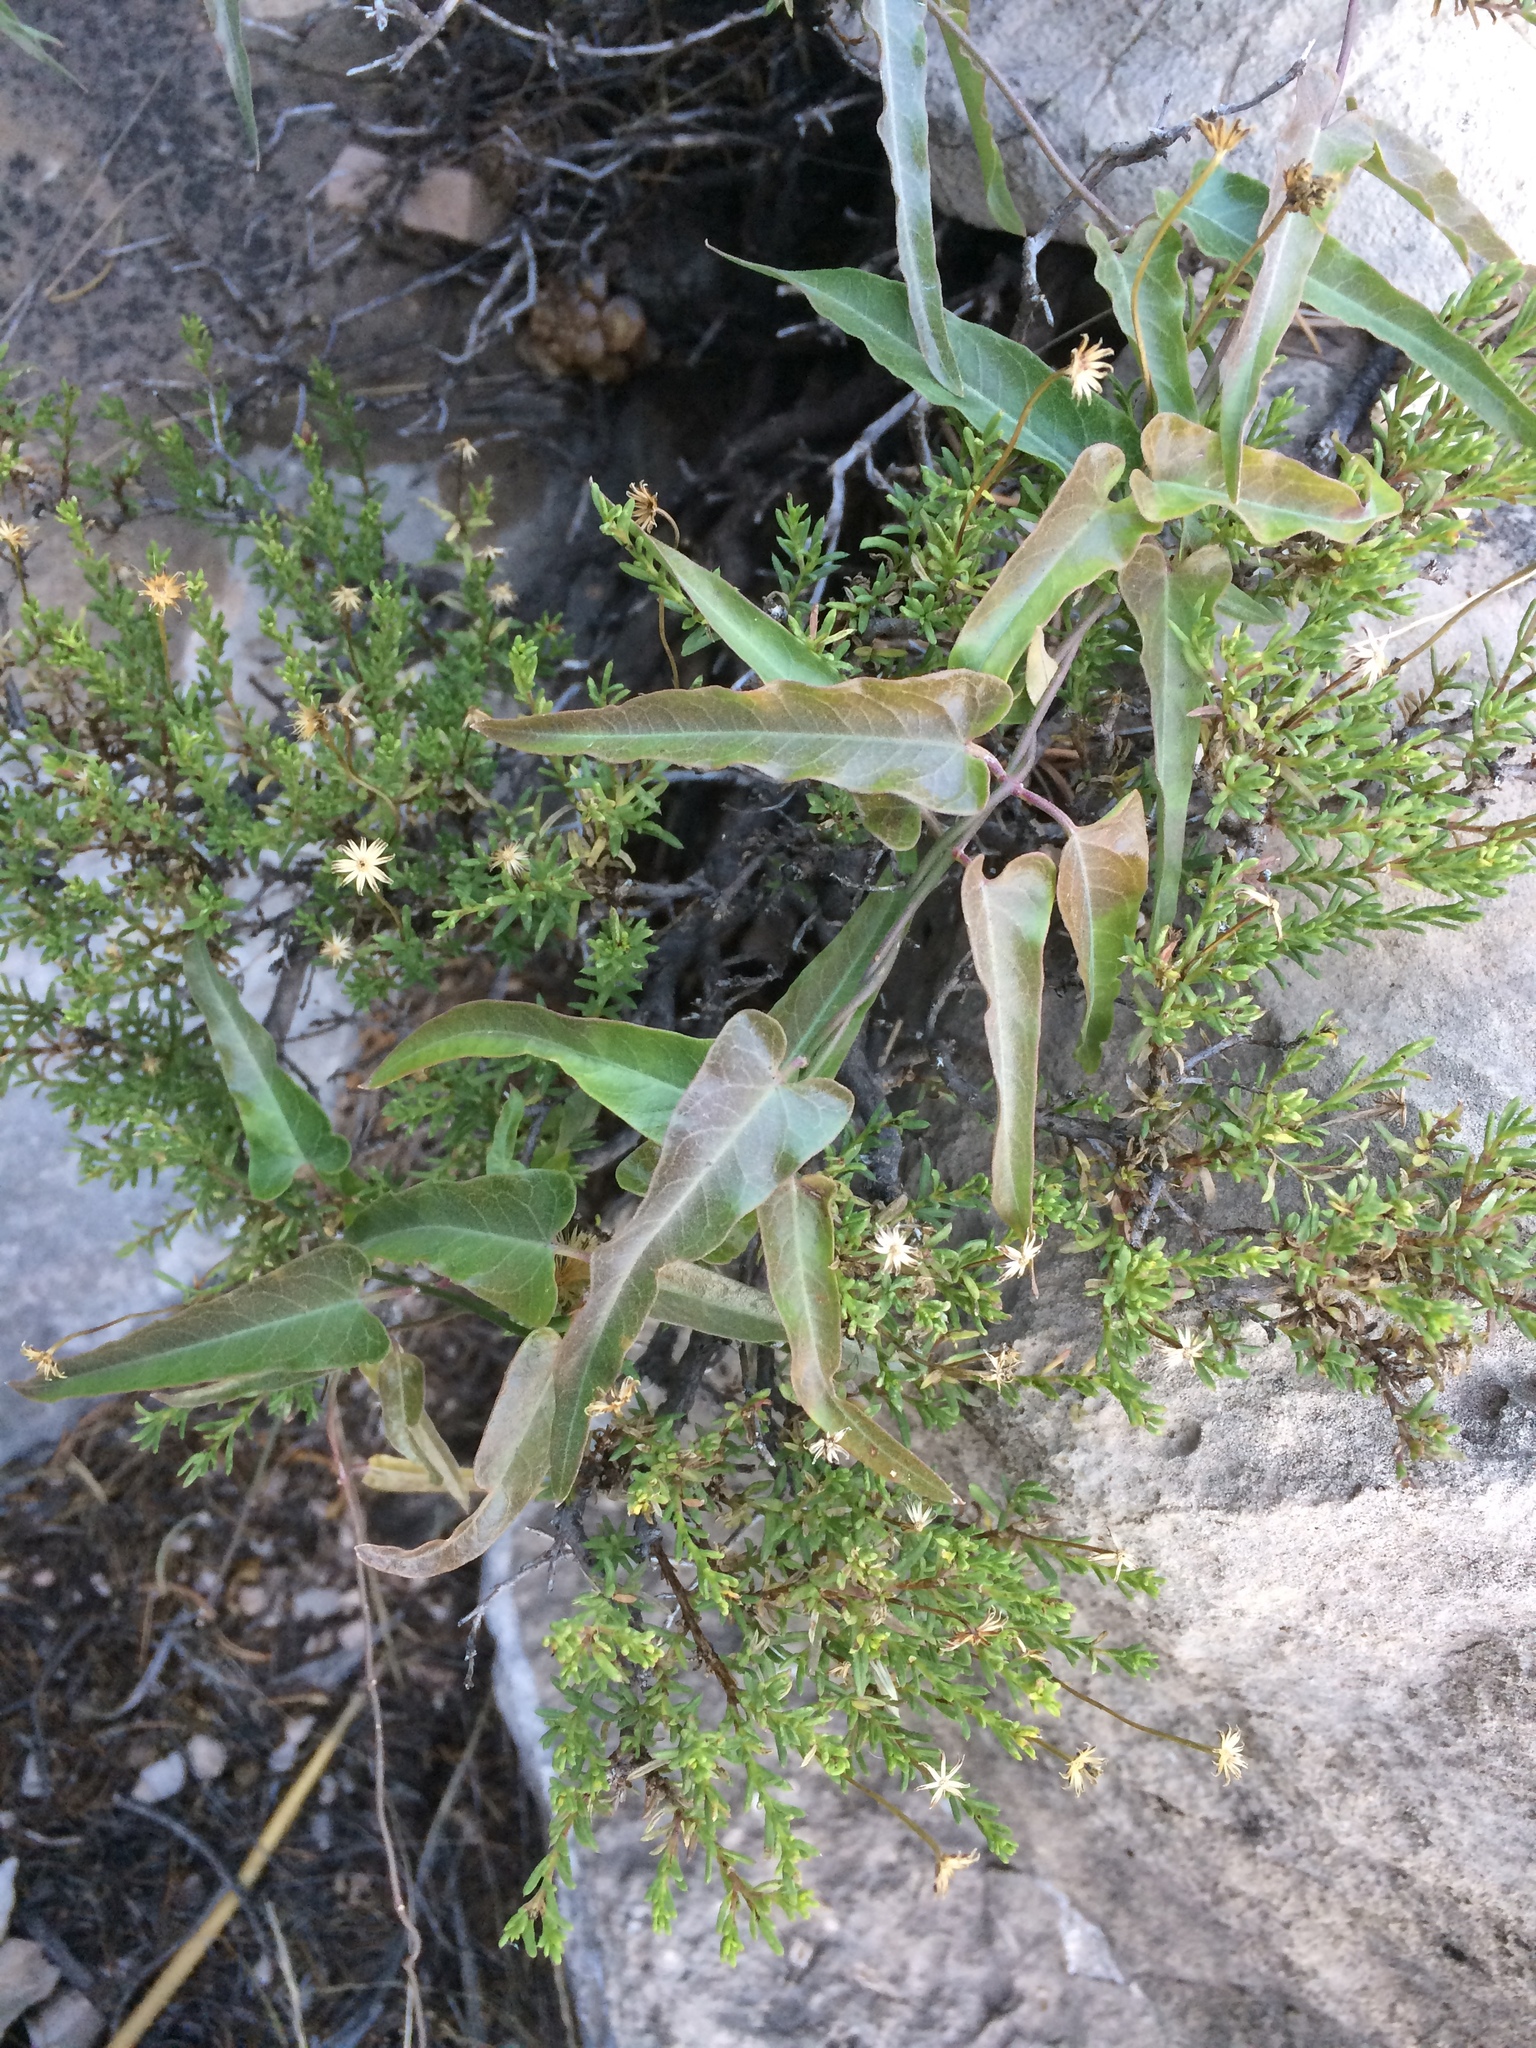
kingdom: Plantae
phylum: Tracheophyta
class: Magnoliopsida
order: Gentianales
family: Apocynaceae
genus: Funastrum
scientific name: Funastrum crispum
